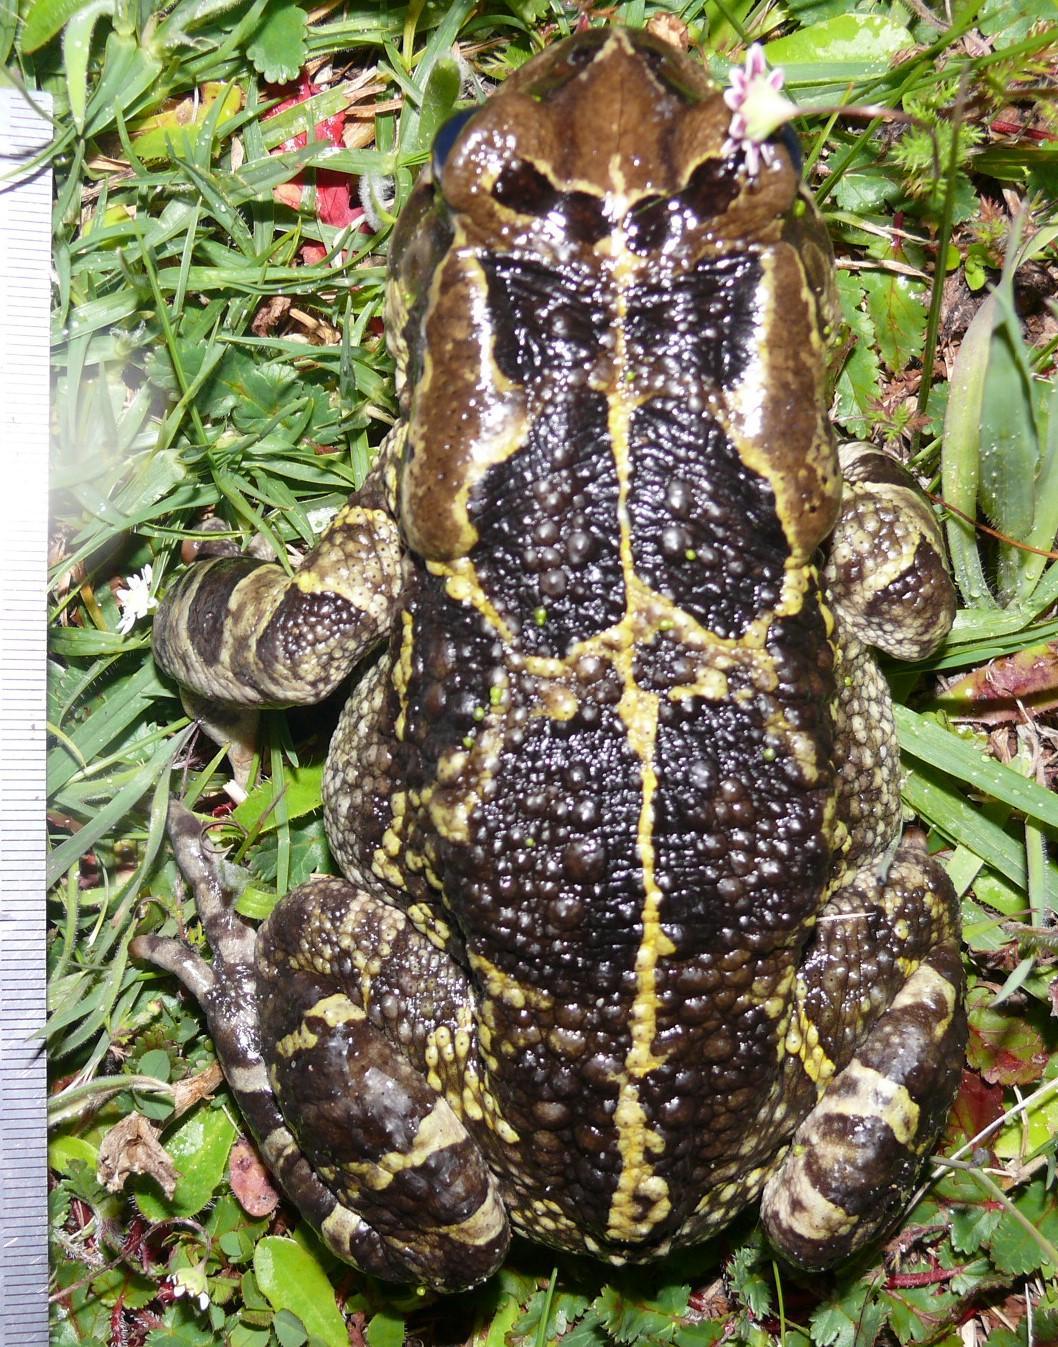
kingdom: Animalia
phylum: Chordata
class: Amphibia
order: Anura
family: Bufonidae
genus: Sclerophrys
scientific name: Sclerophrys pantherina
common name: Panther toad
